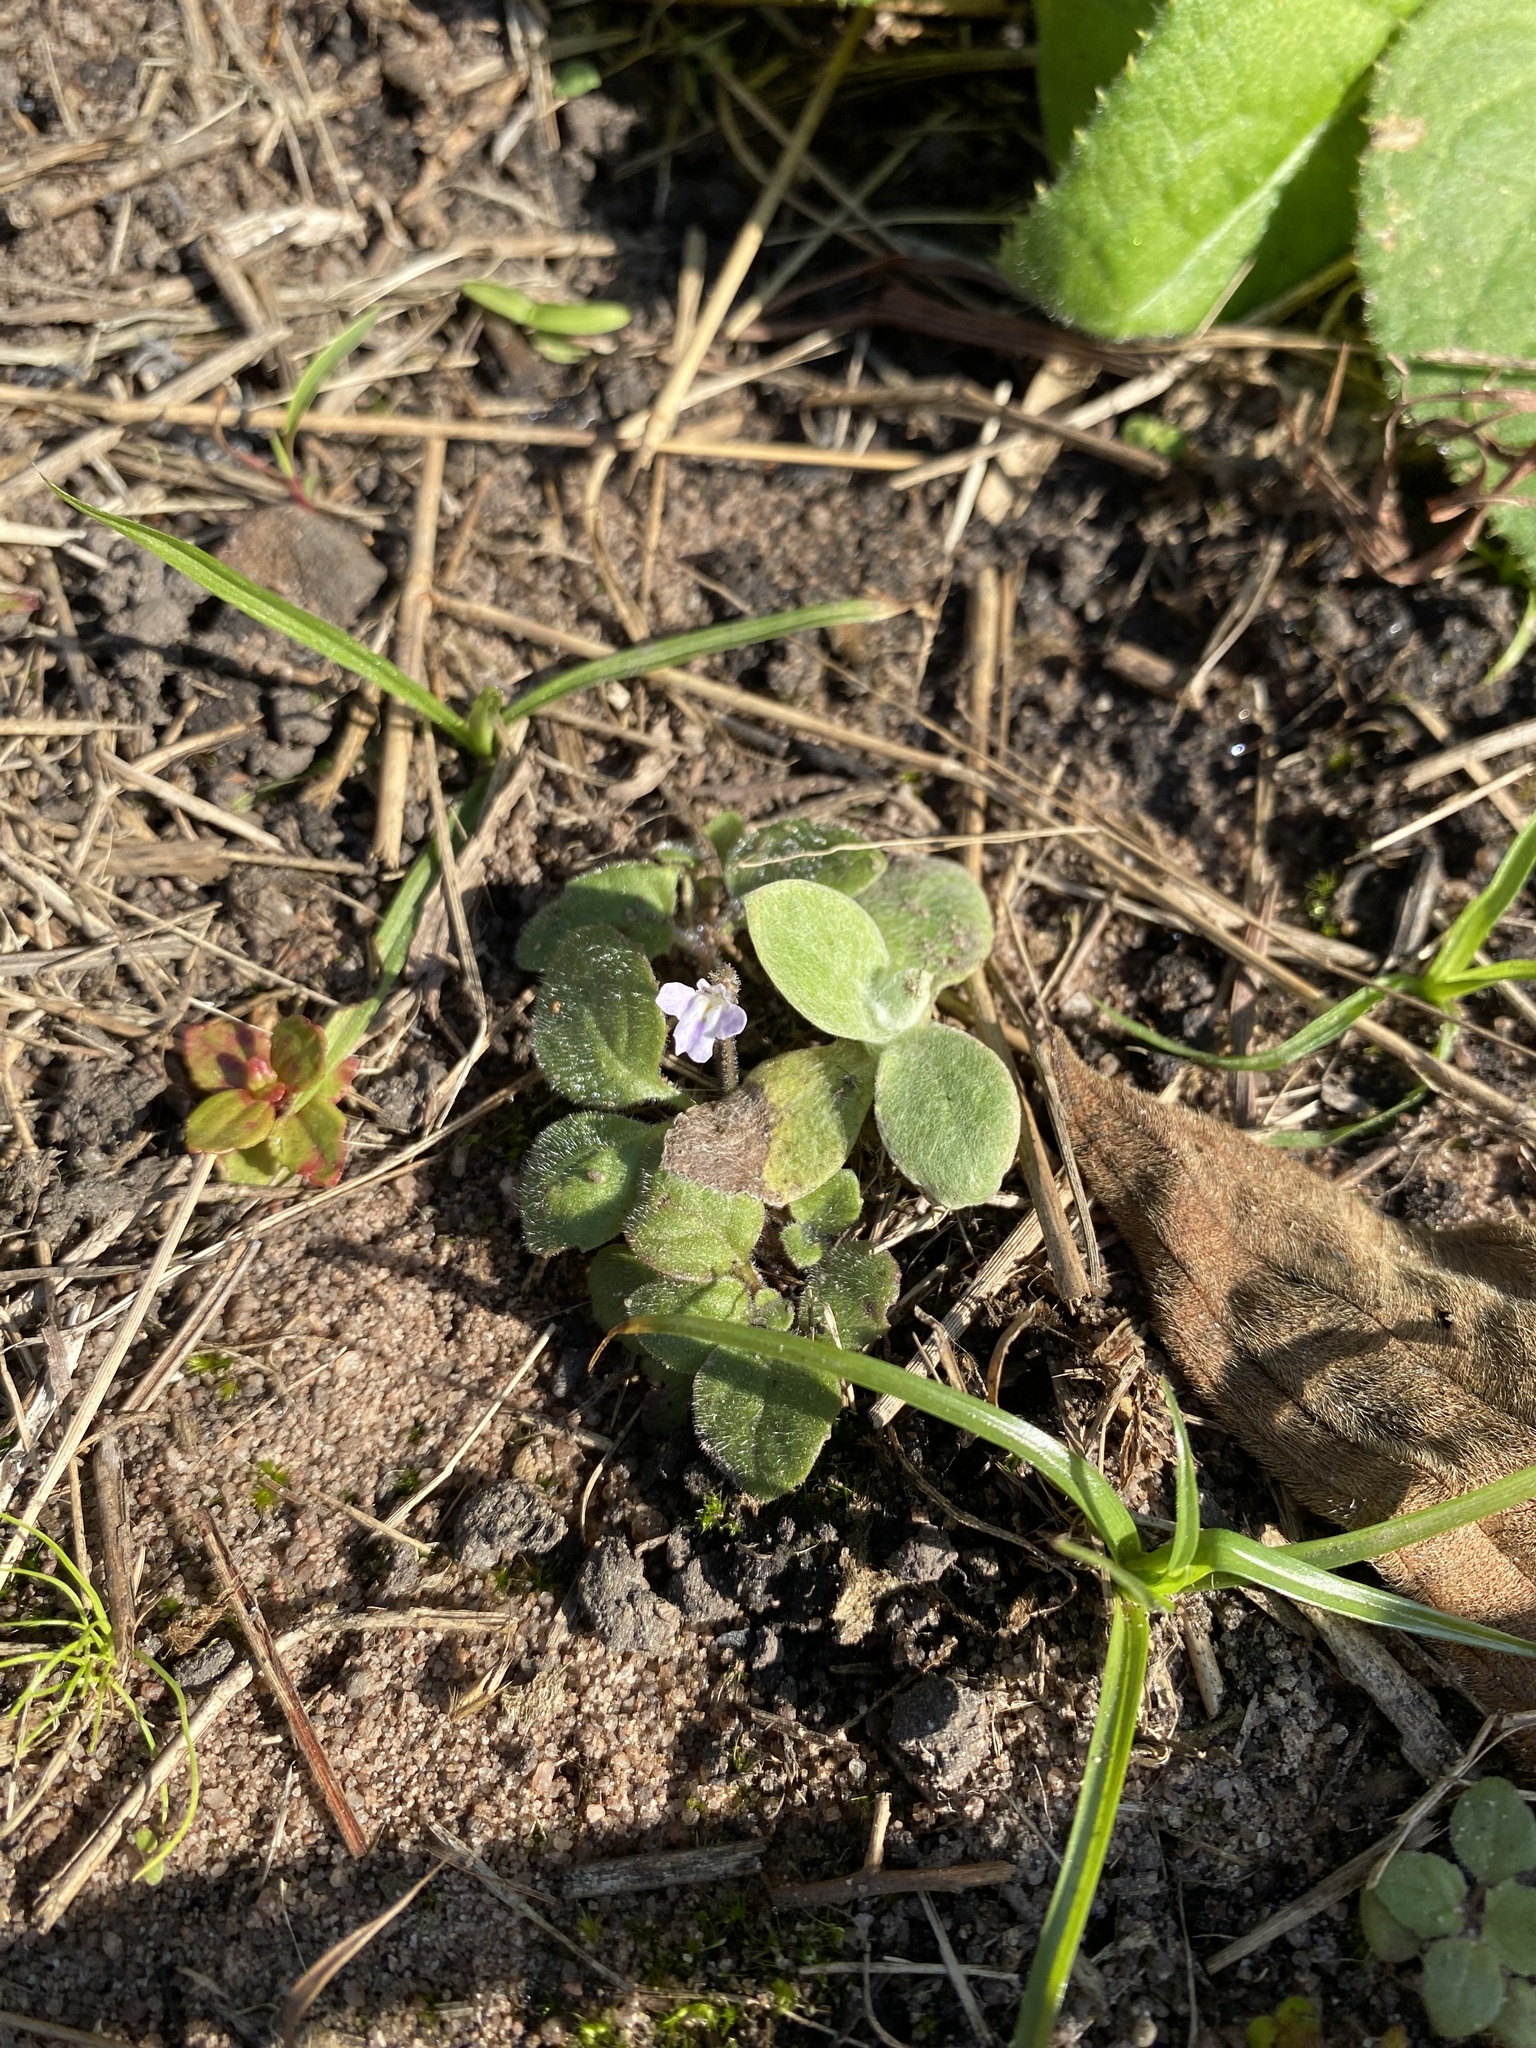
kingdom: Plantae
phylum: Tracheophyta
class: Magnoliopsida
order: Lamiales
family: Scrophulariaceae
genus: Diclis
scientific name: Diclis reptans
